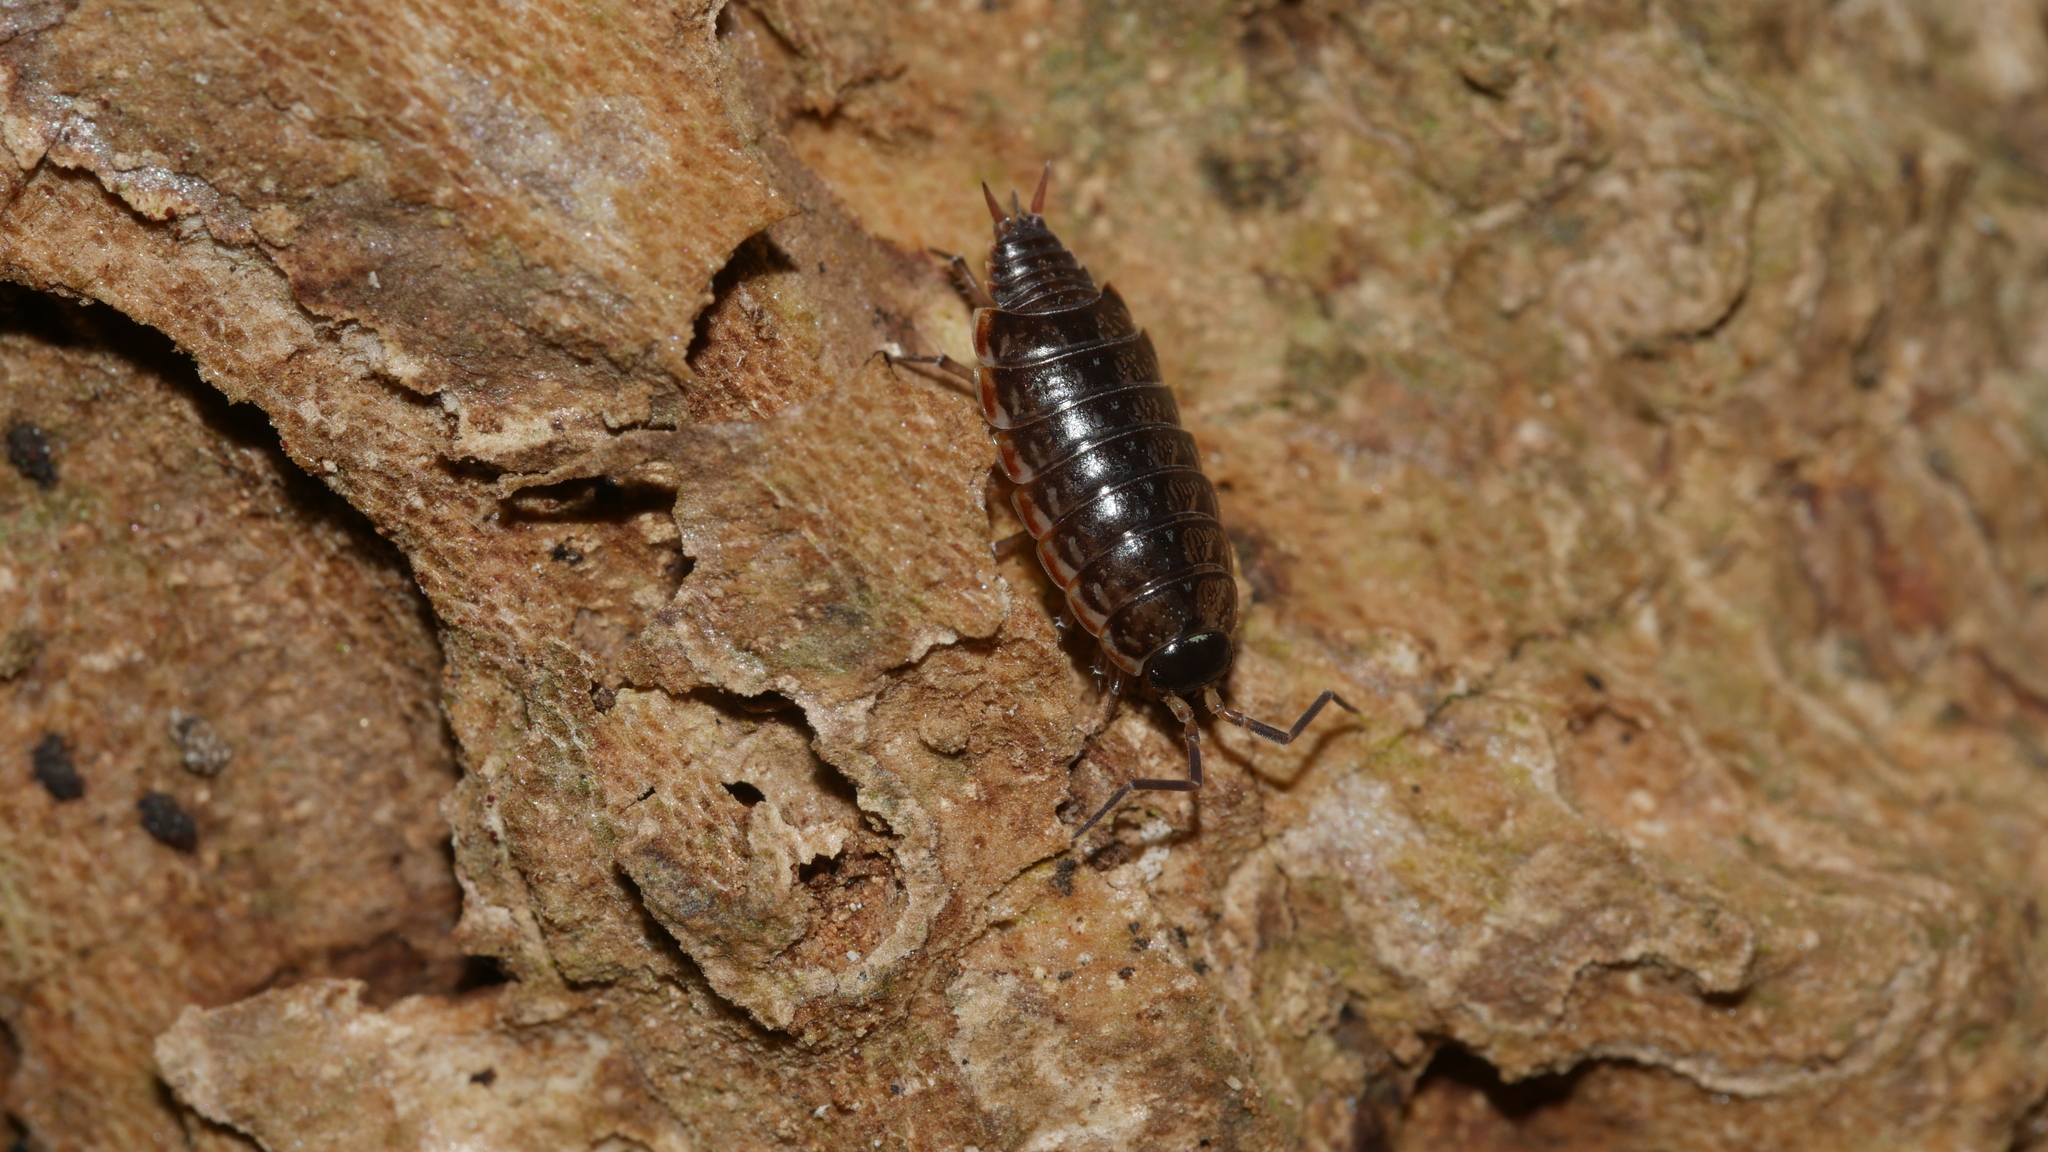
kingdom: Animalia
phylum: Arthropoda
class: Malacostraca
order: Isopoda
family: Philosciidae
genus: Philoscia
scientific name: Philoscia muscorum
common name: Common striped woodlouse
